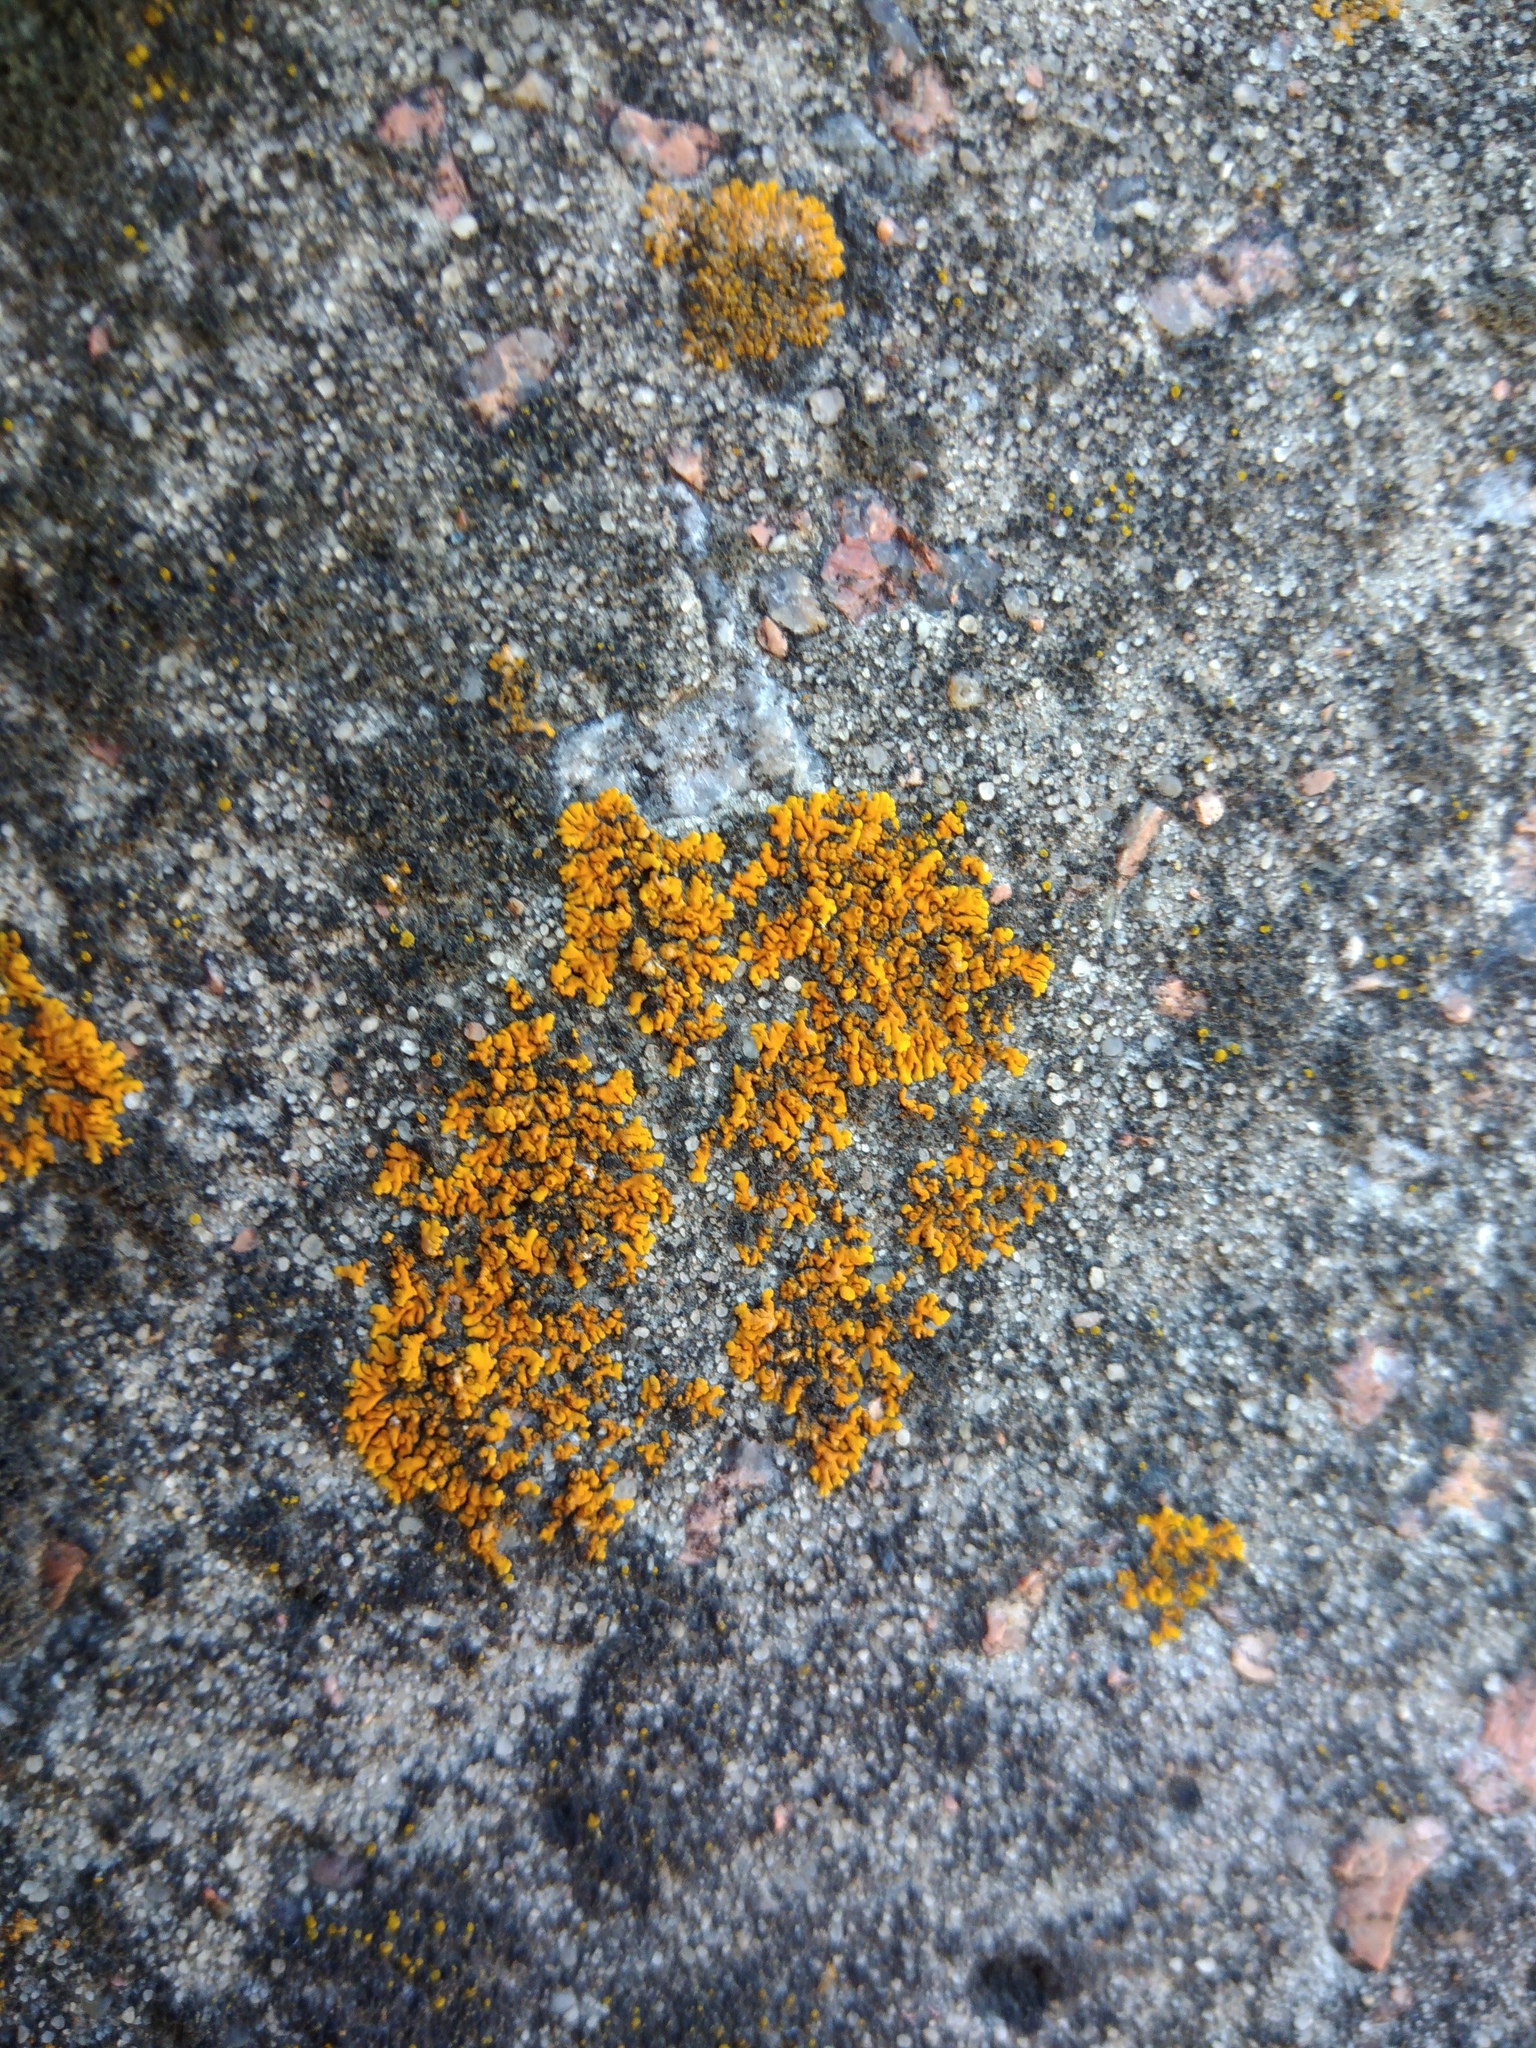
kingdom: Fungi
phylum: Ascomycota
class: Lecanoromycetes
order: Teloschistales
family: Teloschistaceae
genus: Xanthoria
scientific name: Xanthoria elegans
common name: Elegant sunburst lichen
